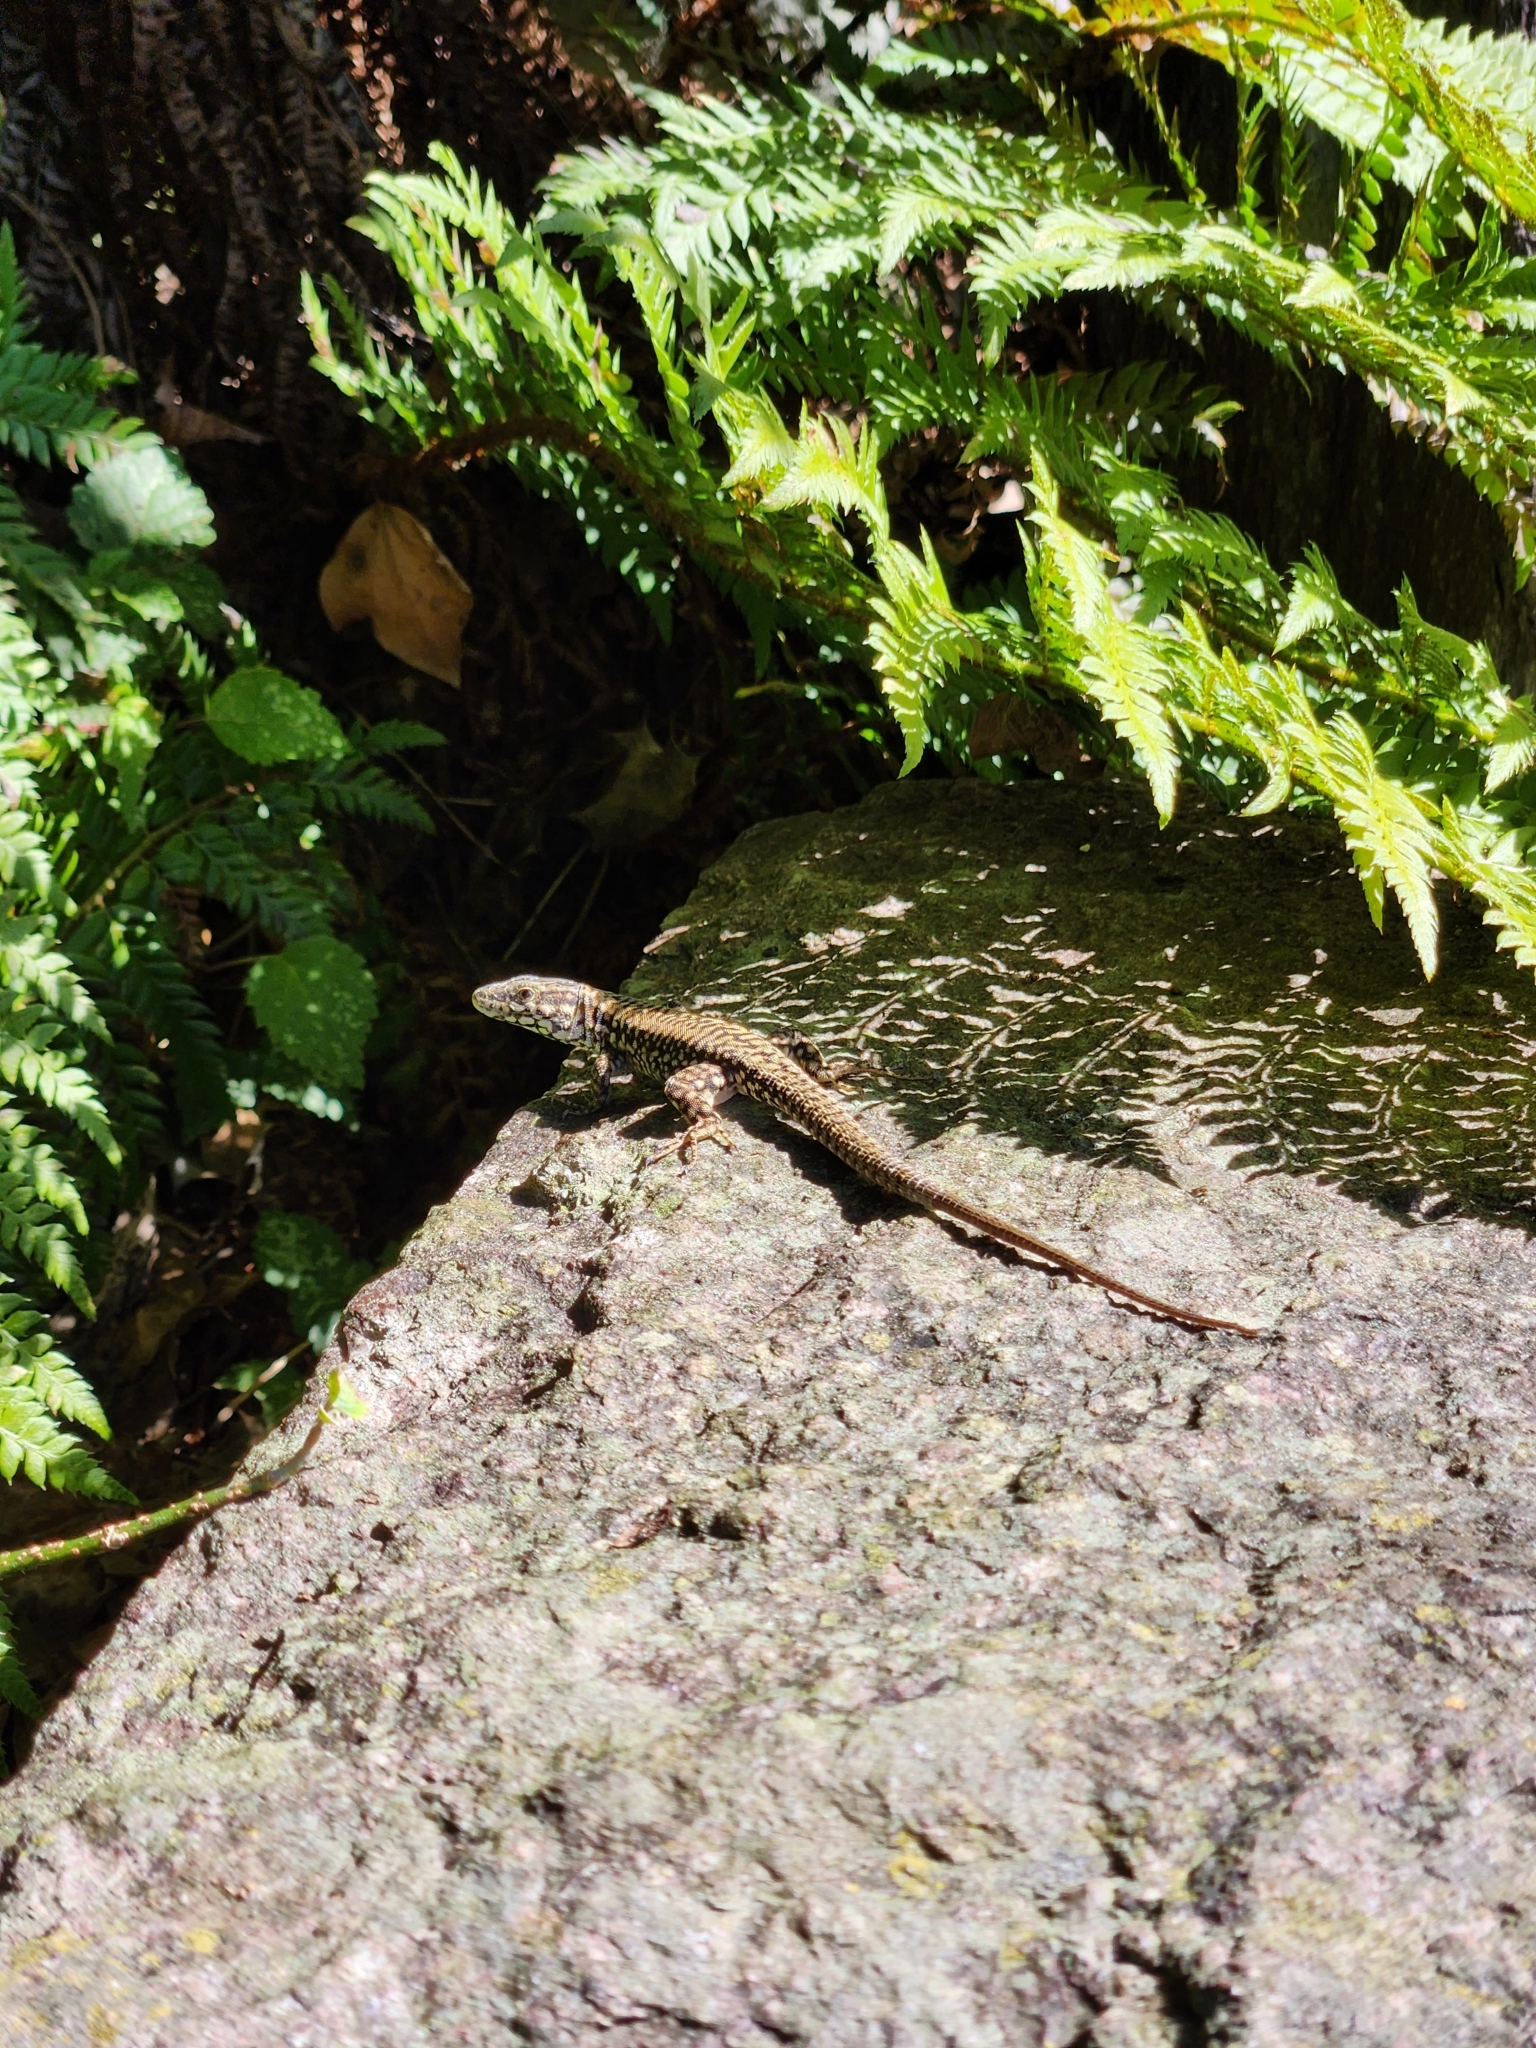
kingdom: Animalia
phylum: Chordata
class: Squamata
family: Lacertidae
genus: Podarcis
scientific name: Podarcis muralis
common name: Common wall lizard
